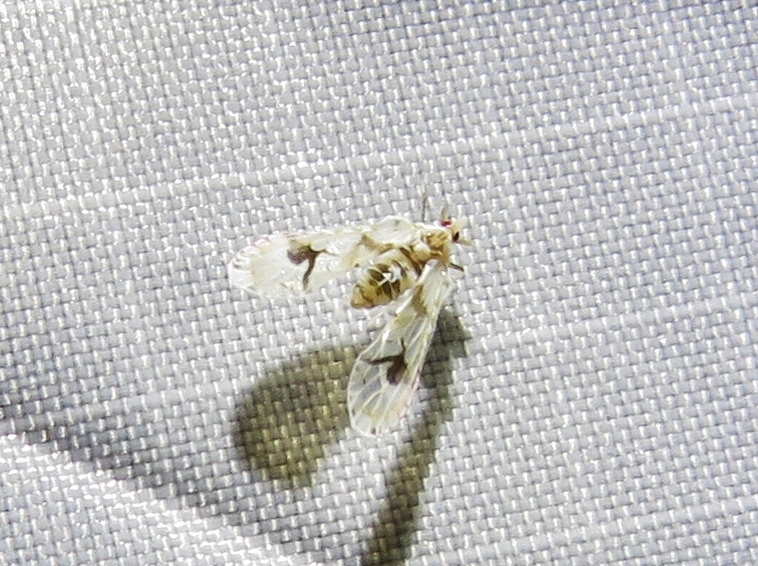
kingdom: Animalia
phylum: Arthropoda
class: Insecta
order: Hemiptera
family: Derbidae
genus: Anotia
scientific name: Anotia robertsonii
